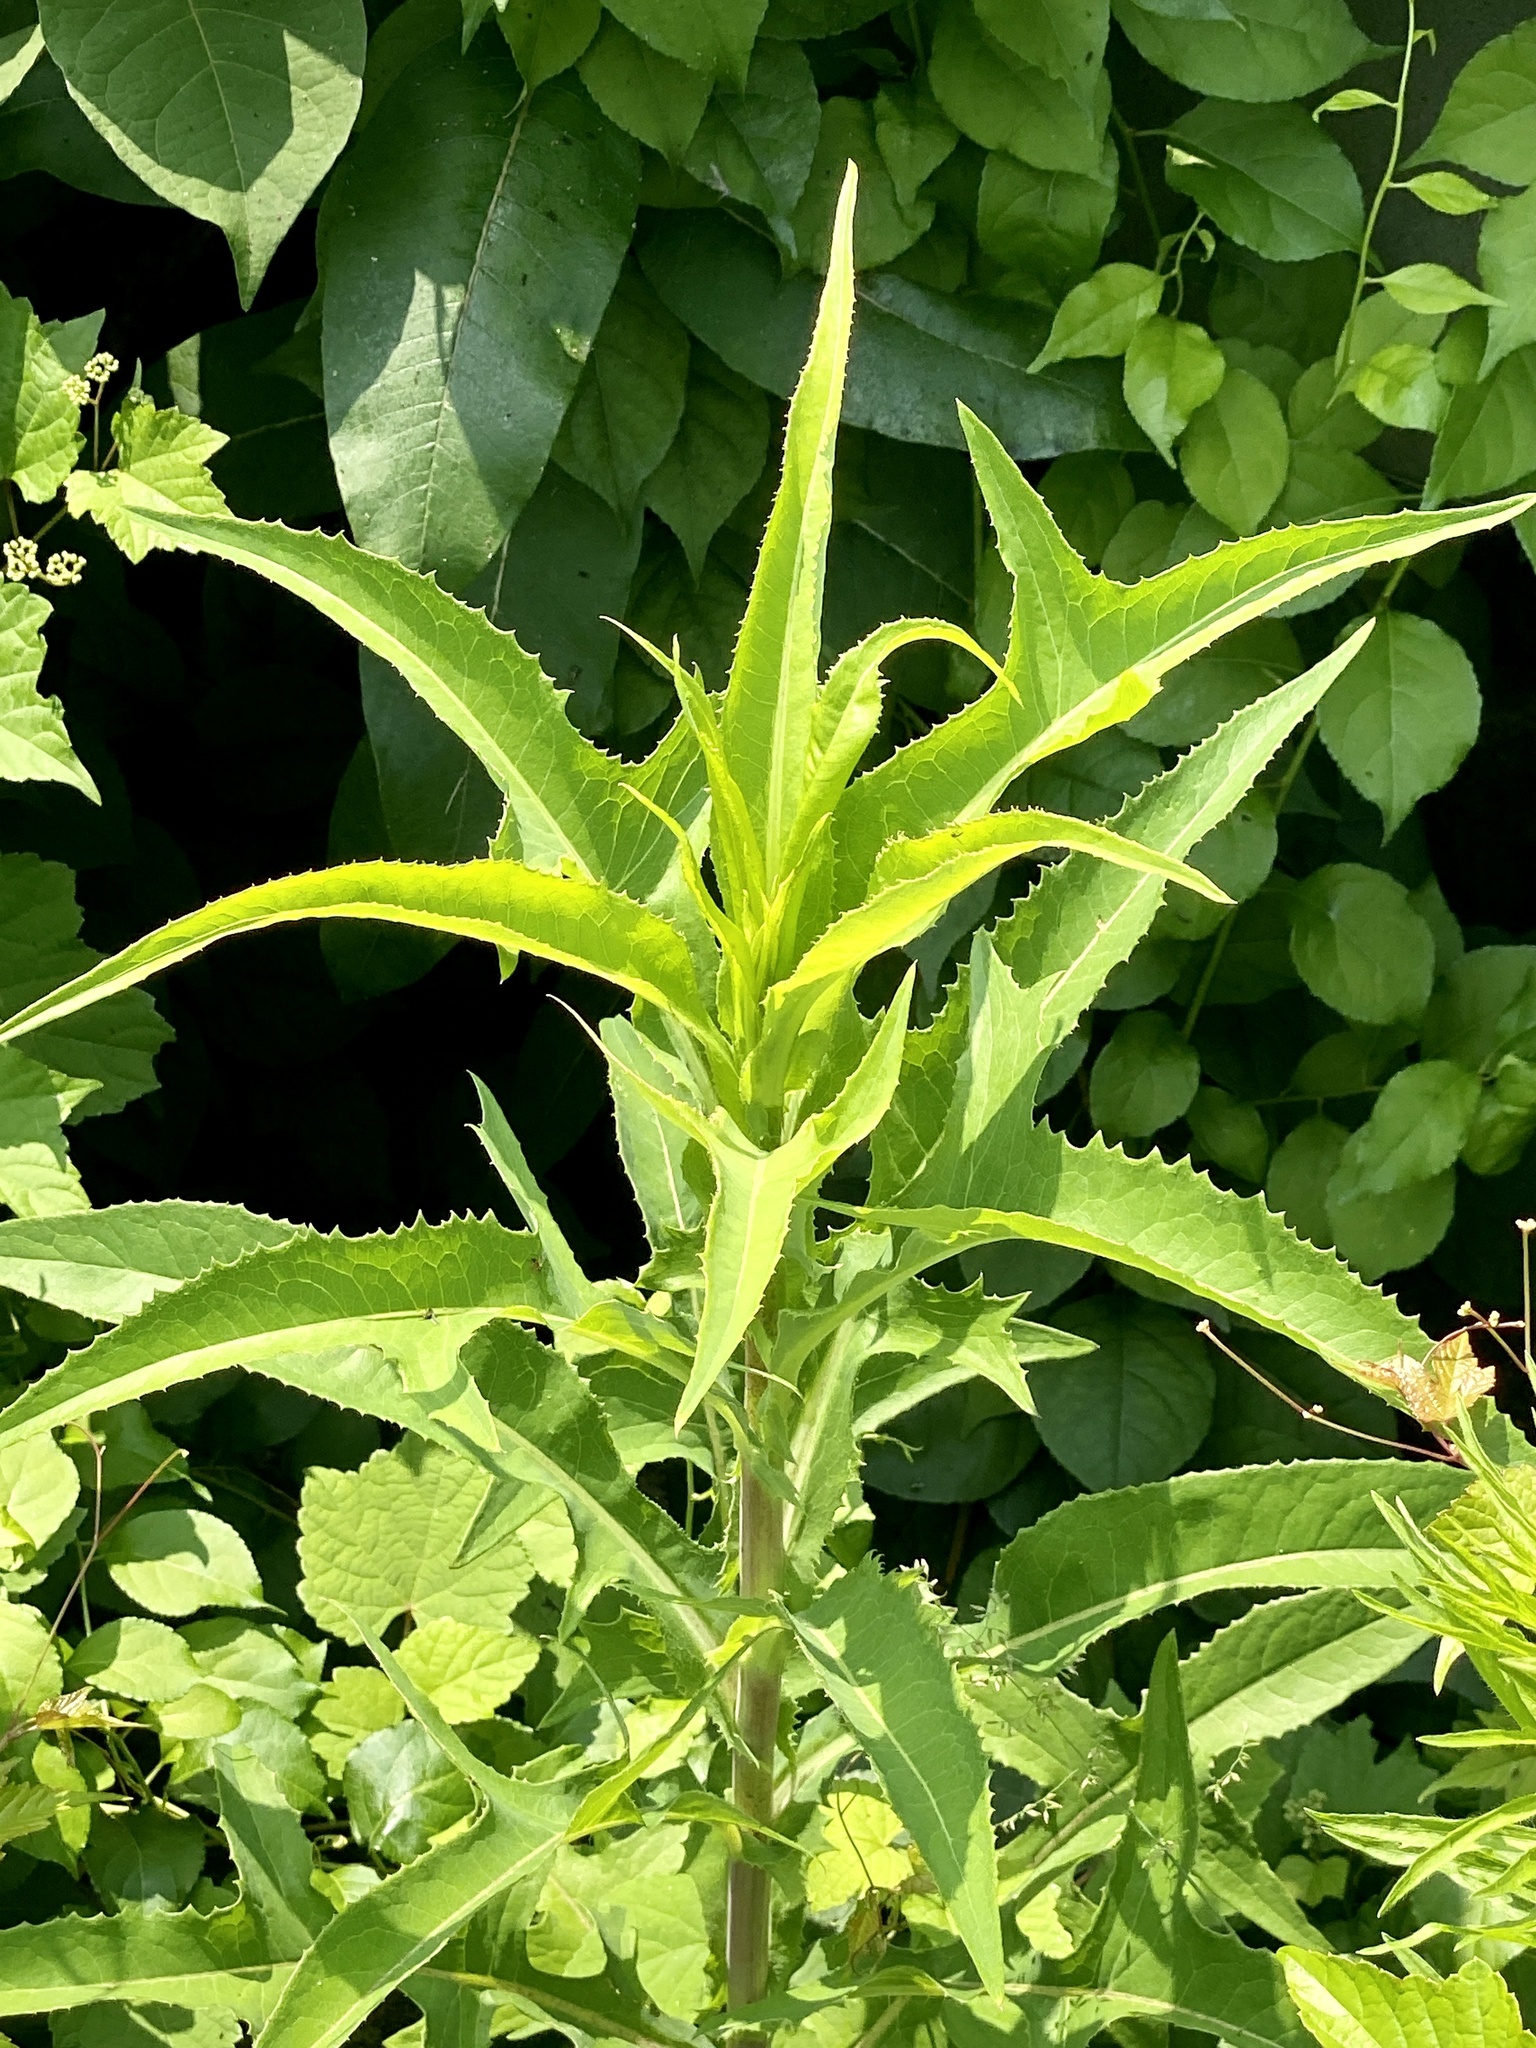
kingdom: Plantae
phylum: Tracheophyta
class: Magnoliopsida
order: Asterales
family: Asteraceae
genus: Sonchus
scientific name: Sonchus oleraceus
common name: Common sowthistle
